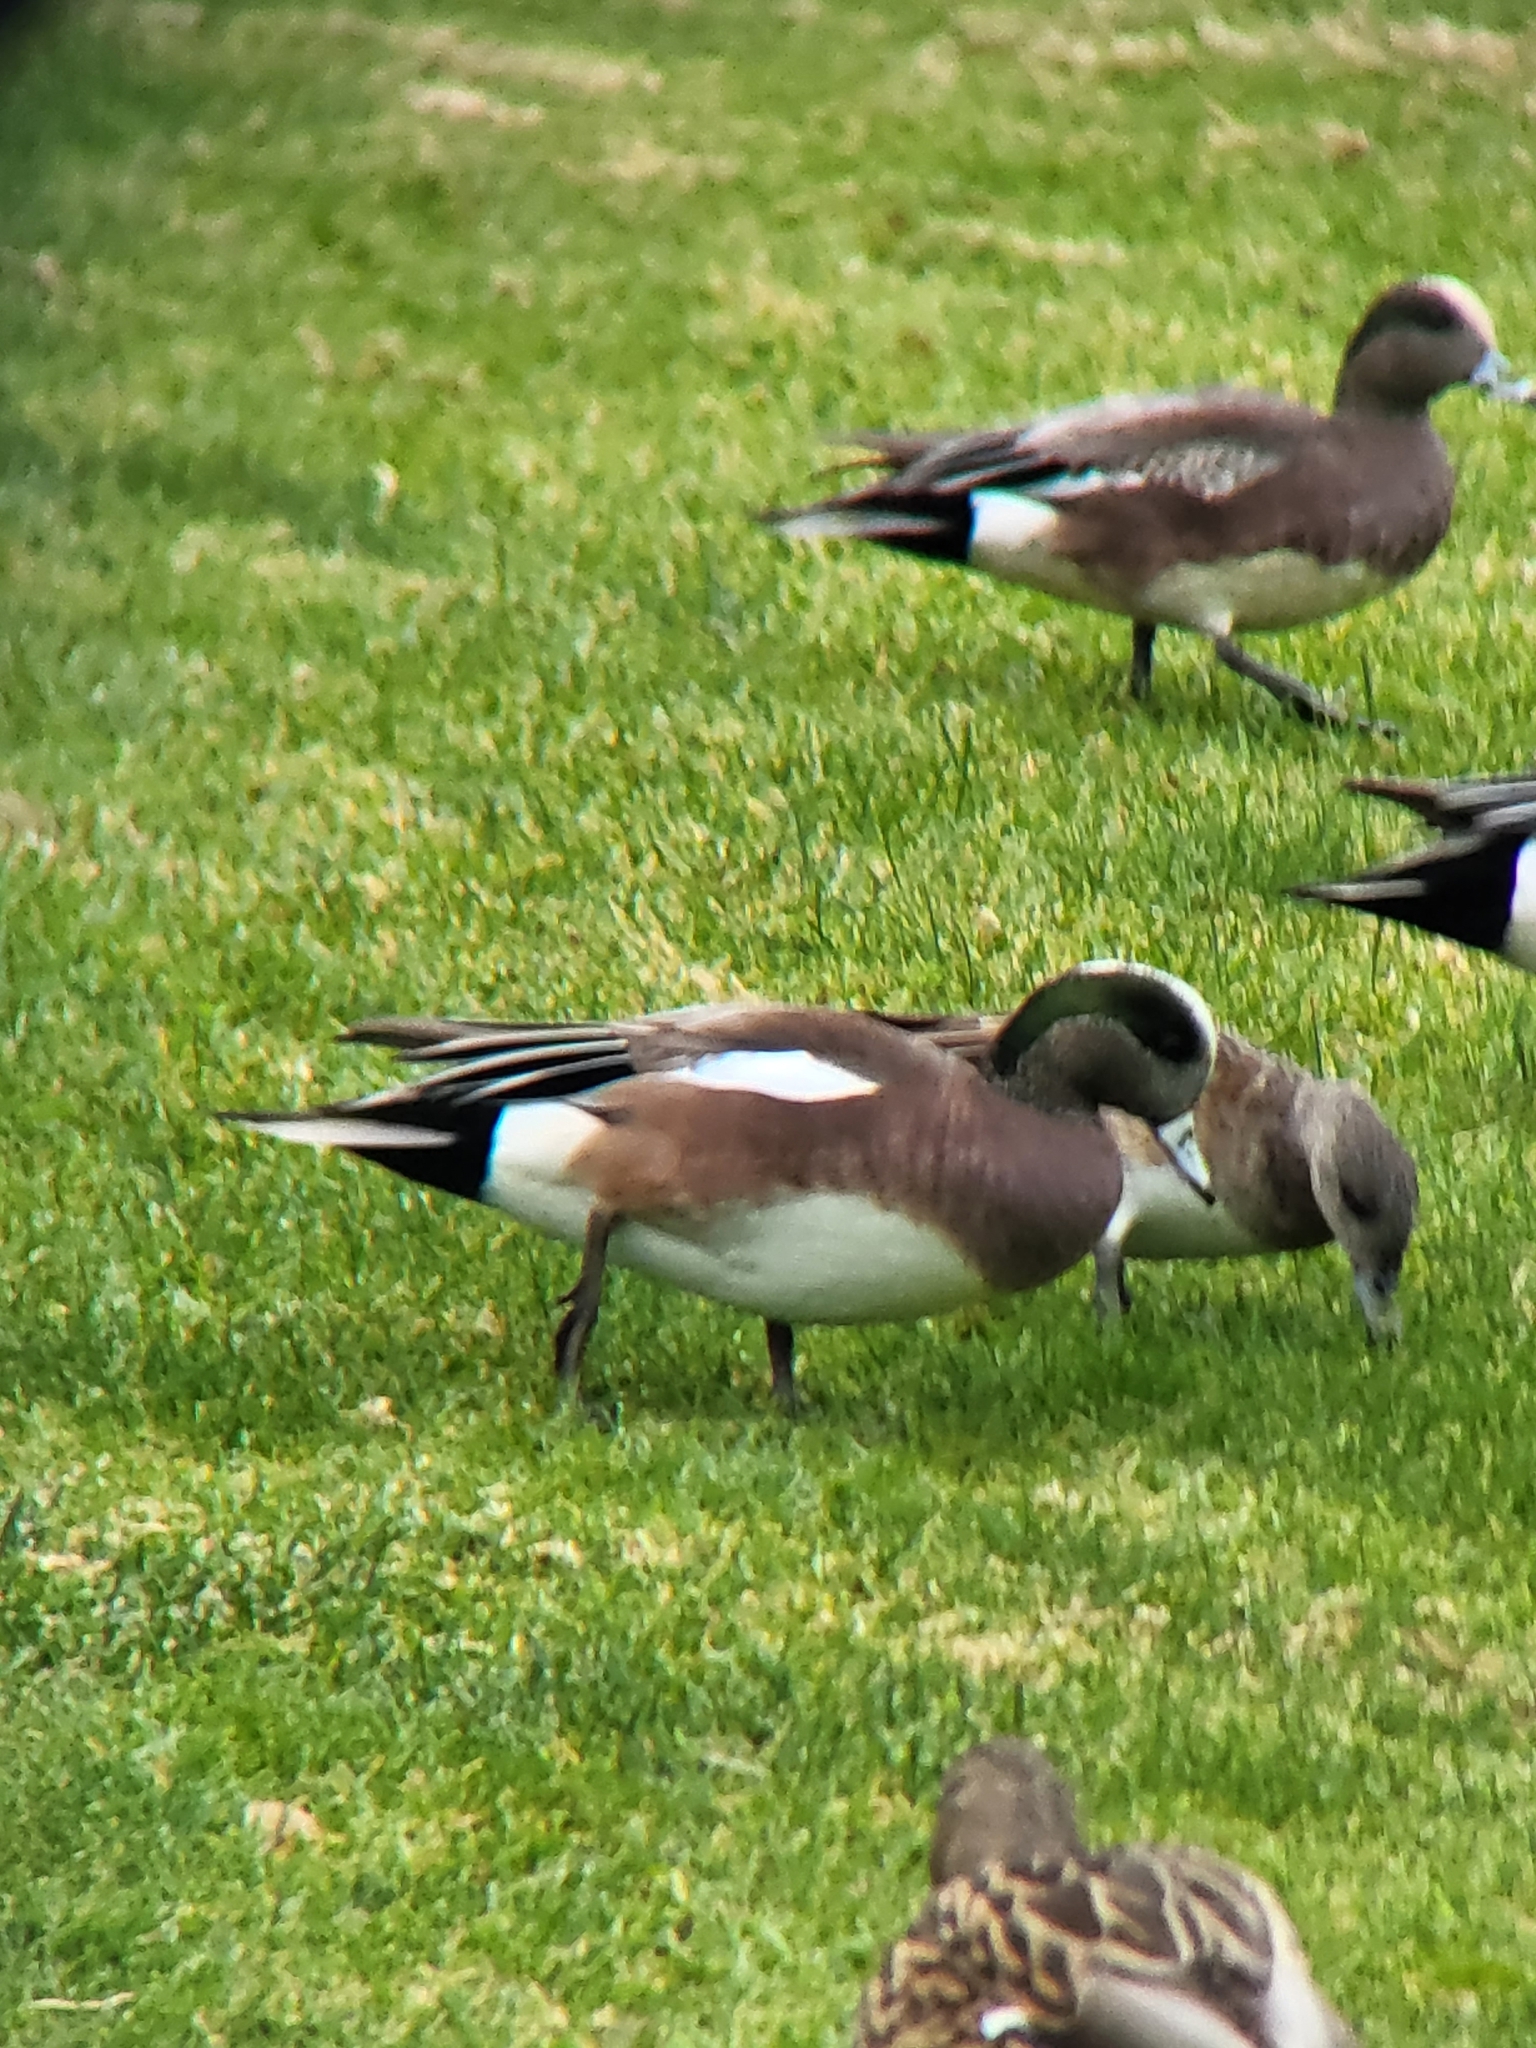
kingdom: Animalia
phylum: Chordata
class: Aves
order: Anseriformes
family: Anatidae
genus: Mareca
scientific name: Mareca americana
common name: American wigeon
